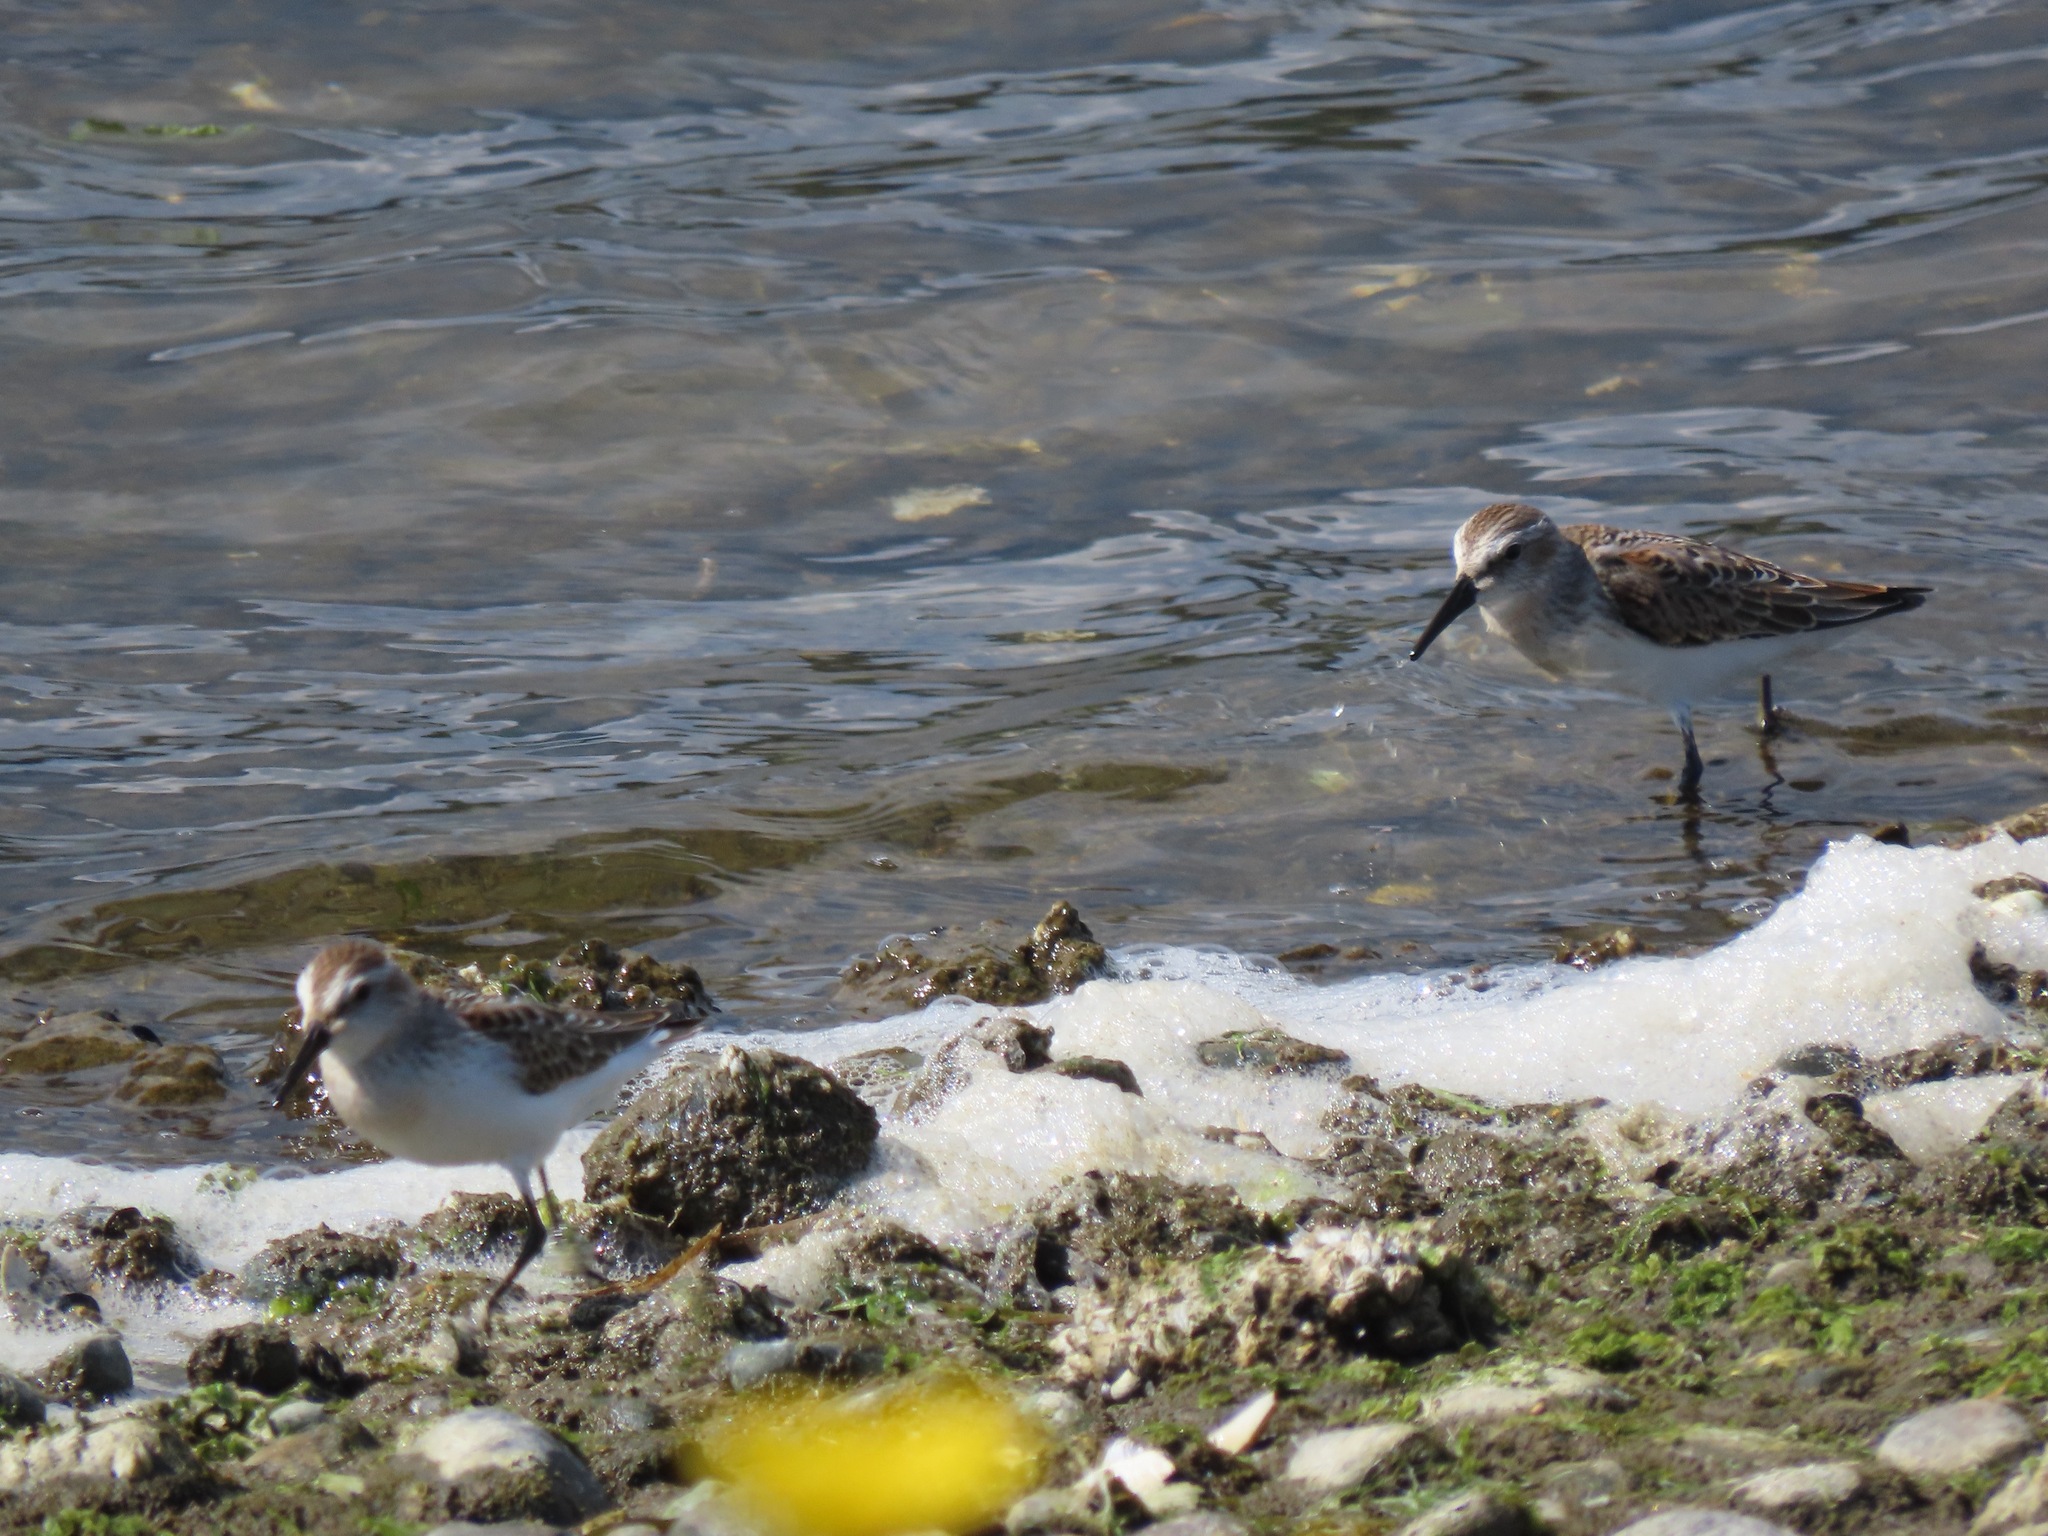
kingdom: Animalia
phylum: Chordata
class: Aves
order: Charadriiformes
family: Scolopacidae
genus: Calidris
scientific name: Calidris mauri
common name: Western sandpiper
